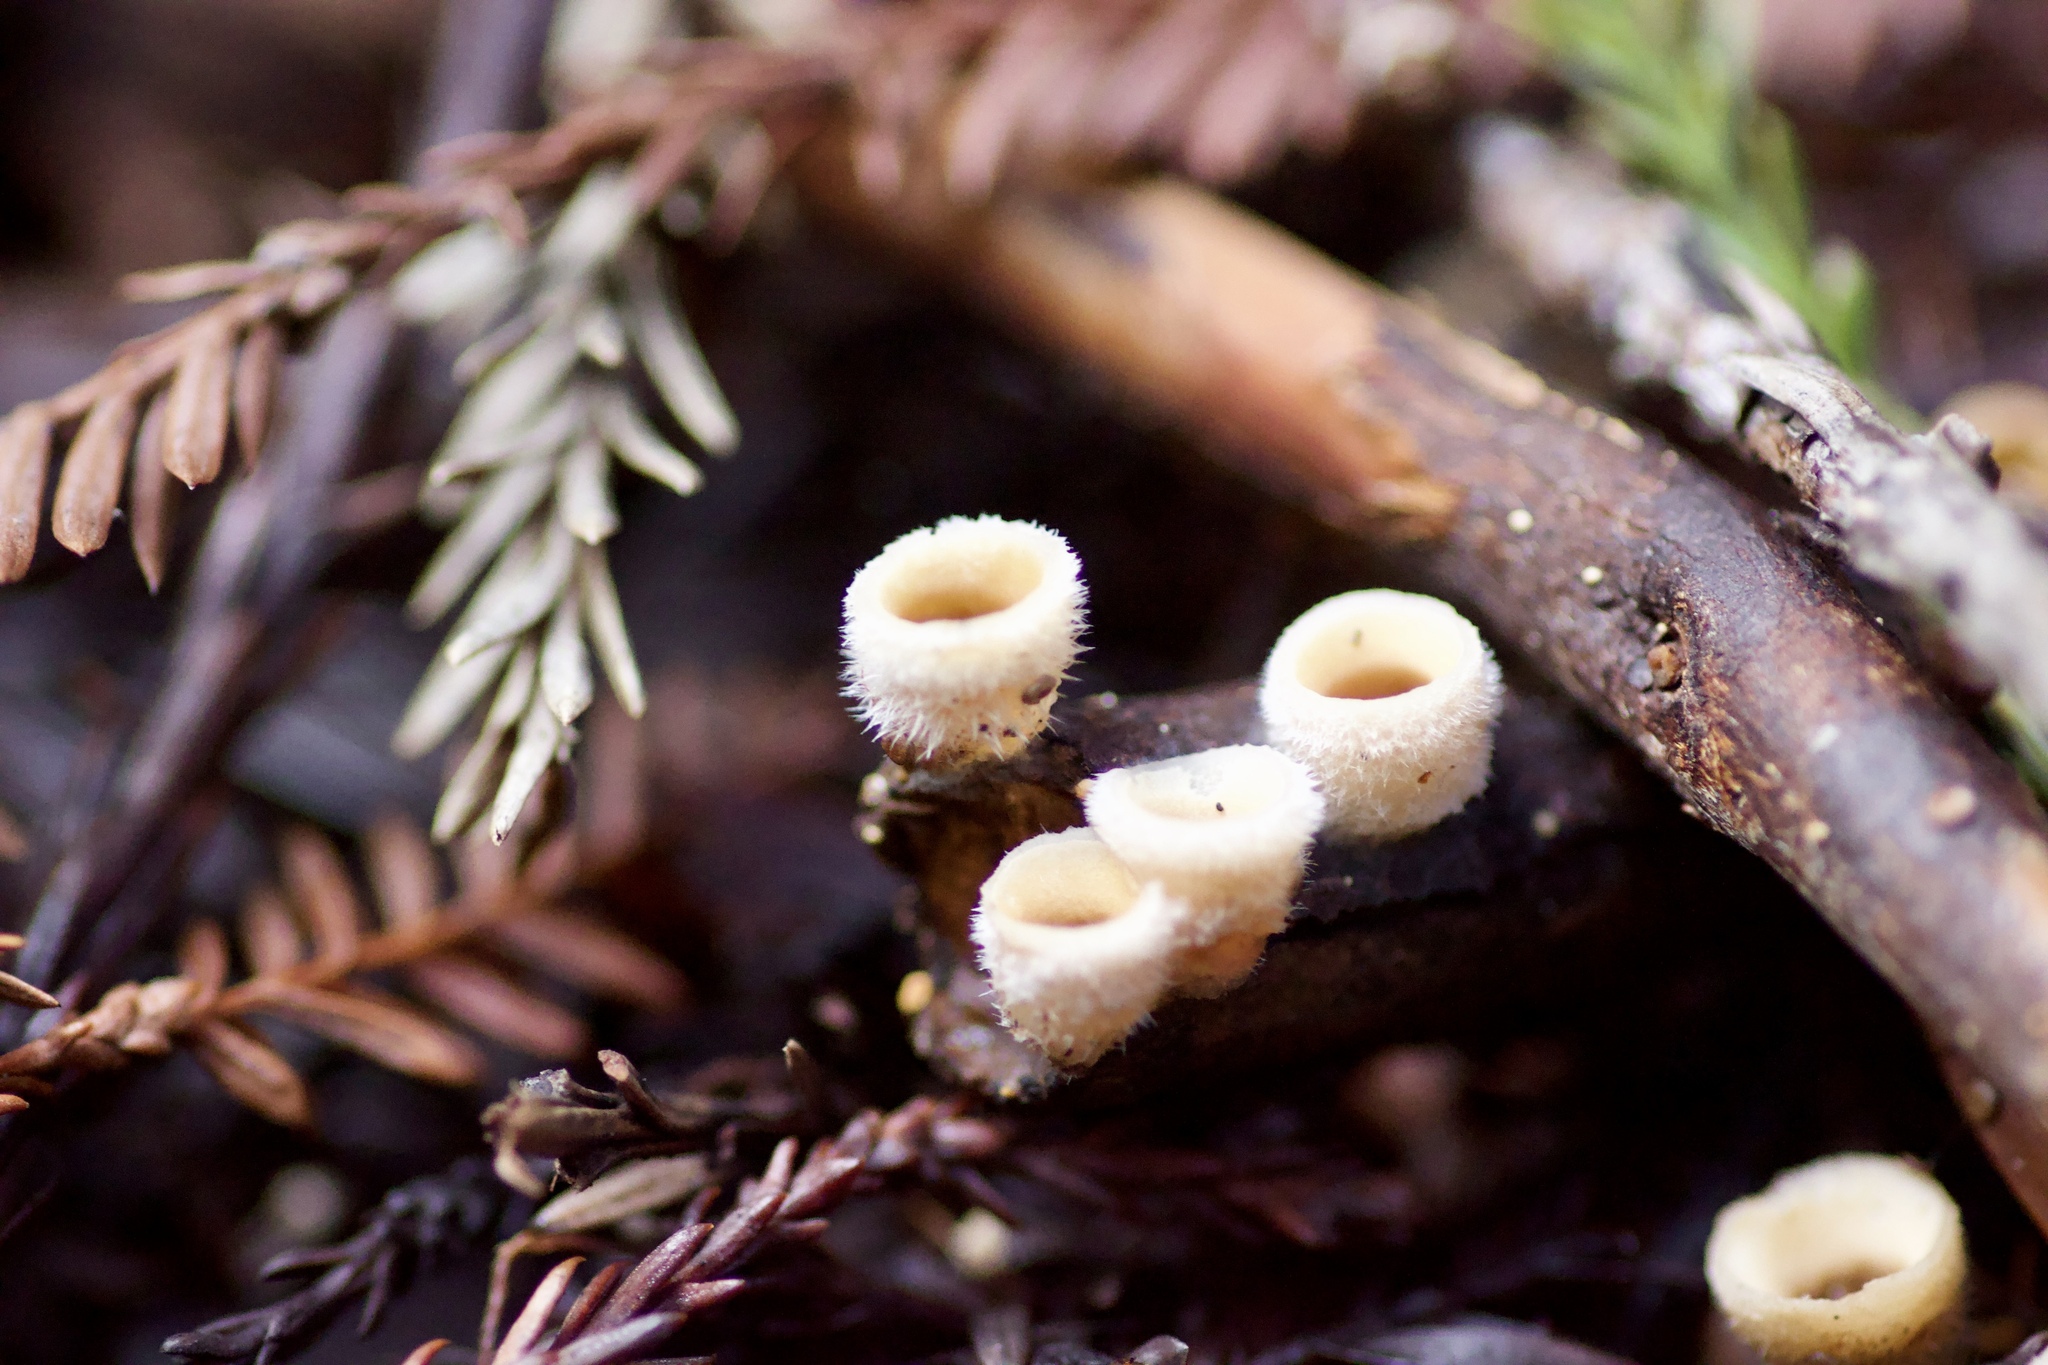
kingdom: Fungi
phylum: Basidiomycota
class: Agaricomycetes
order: Agaricales
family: Agaricaceae
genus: Nidula
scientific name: Nidula niveotomentosa
